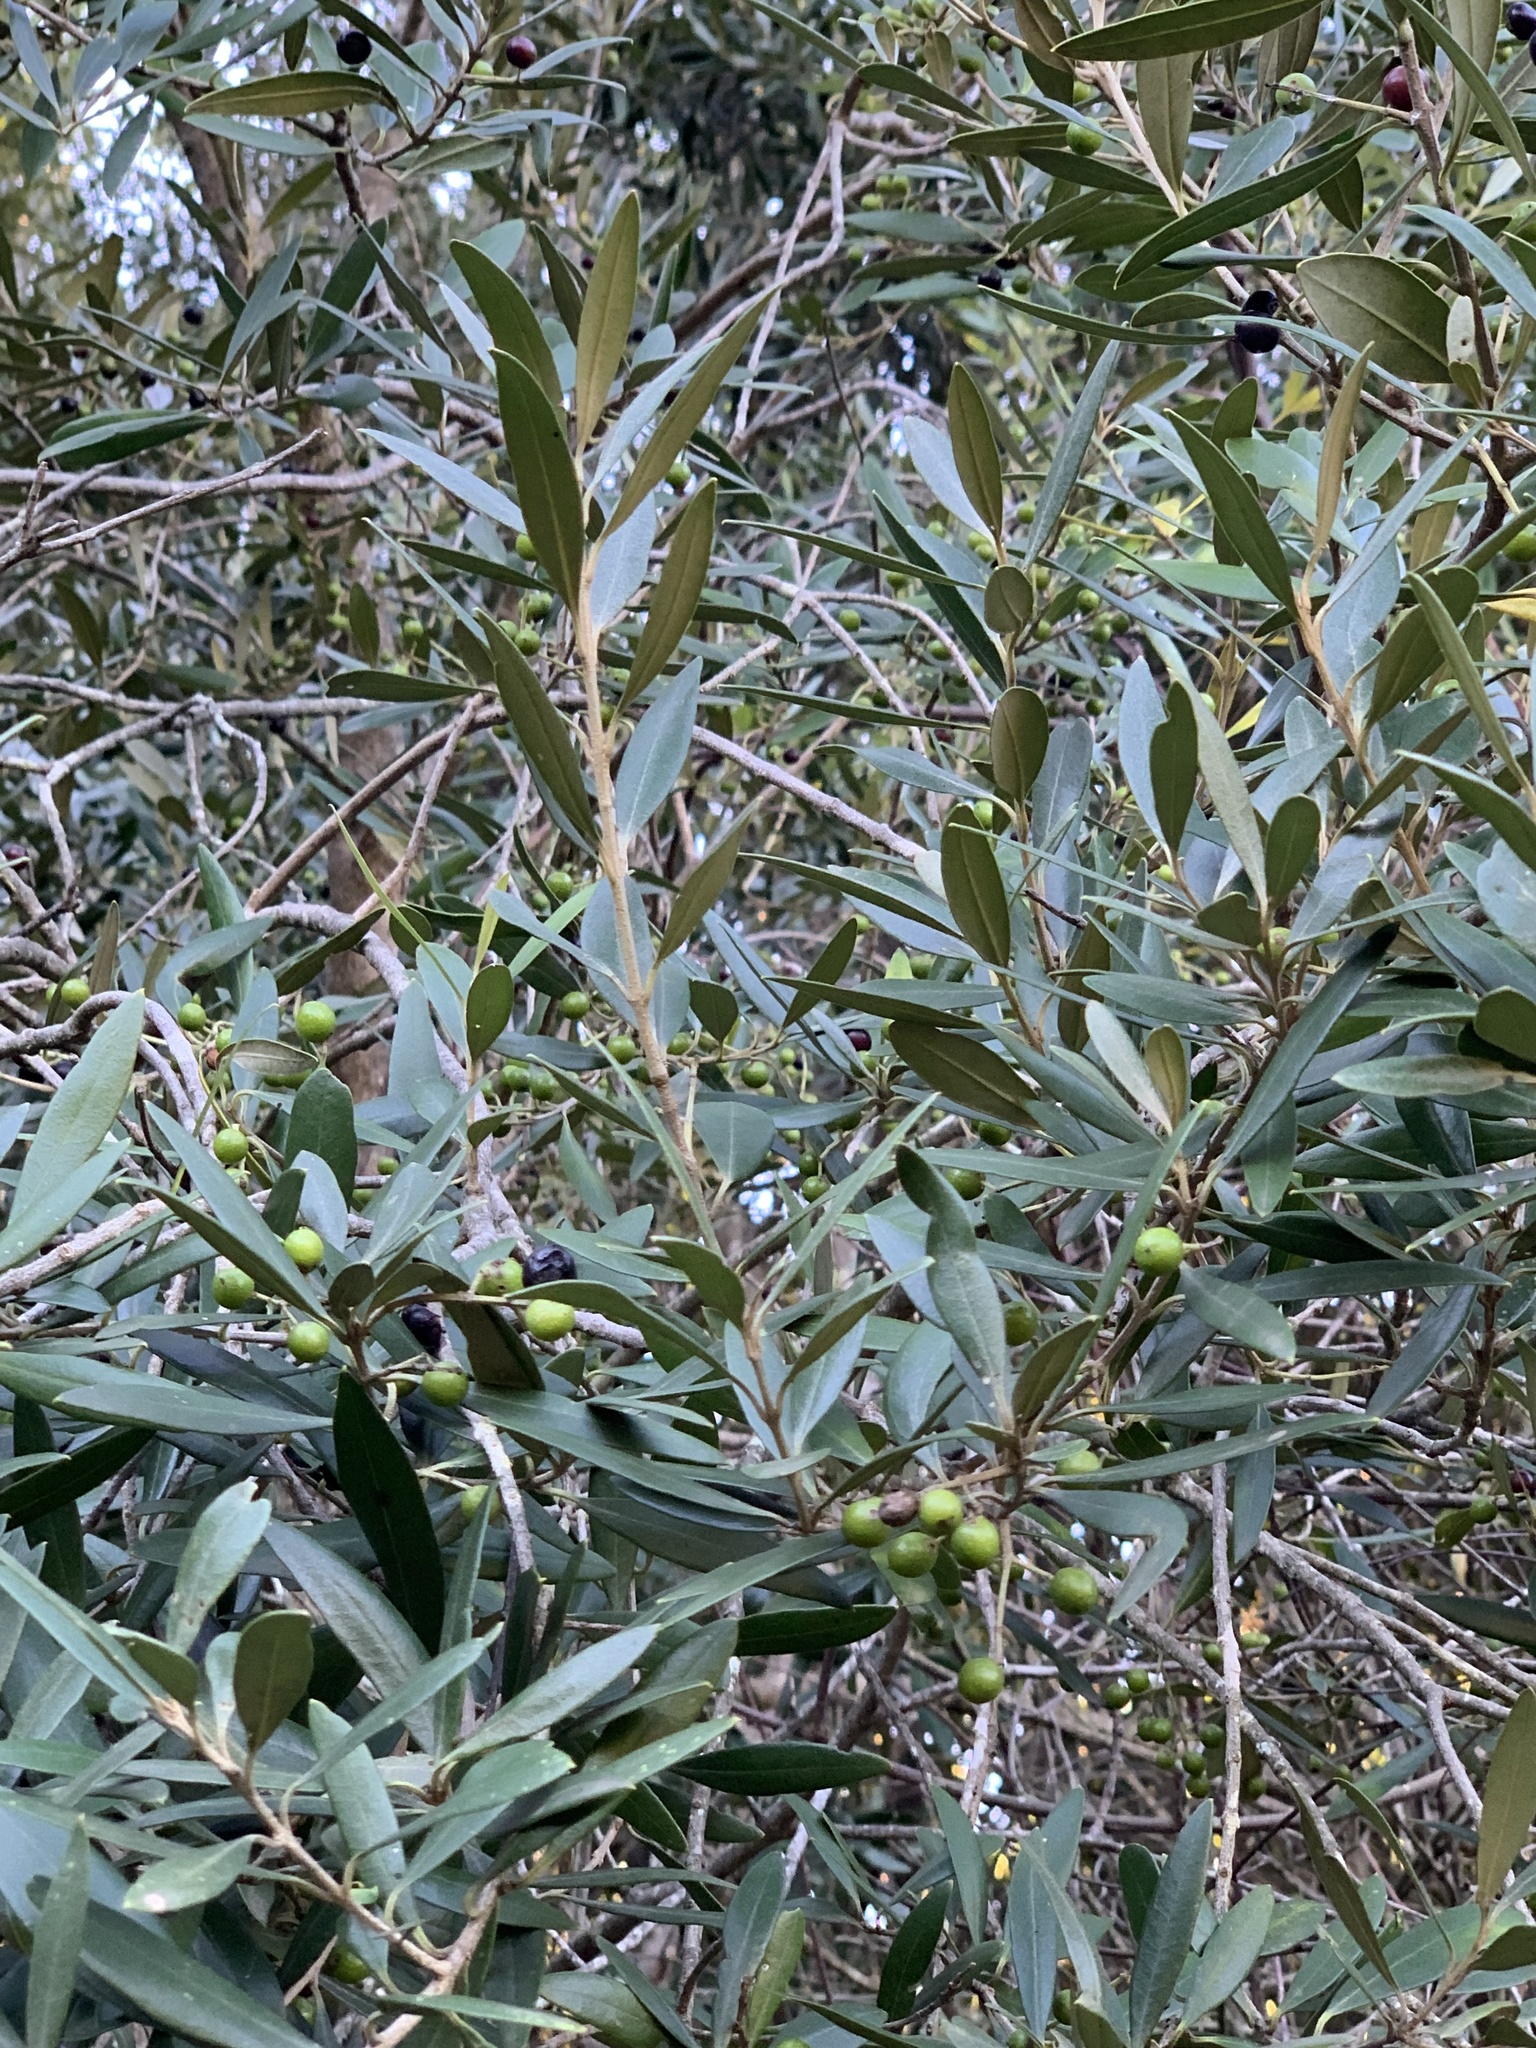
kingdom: Plantae
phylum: Tracheophyta
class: Magnoliopsida
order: Lamiales
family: Oleaceae
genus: Olea
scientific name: Olea europaea
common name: Olive
